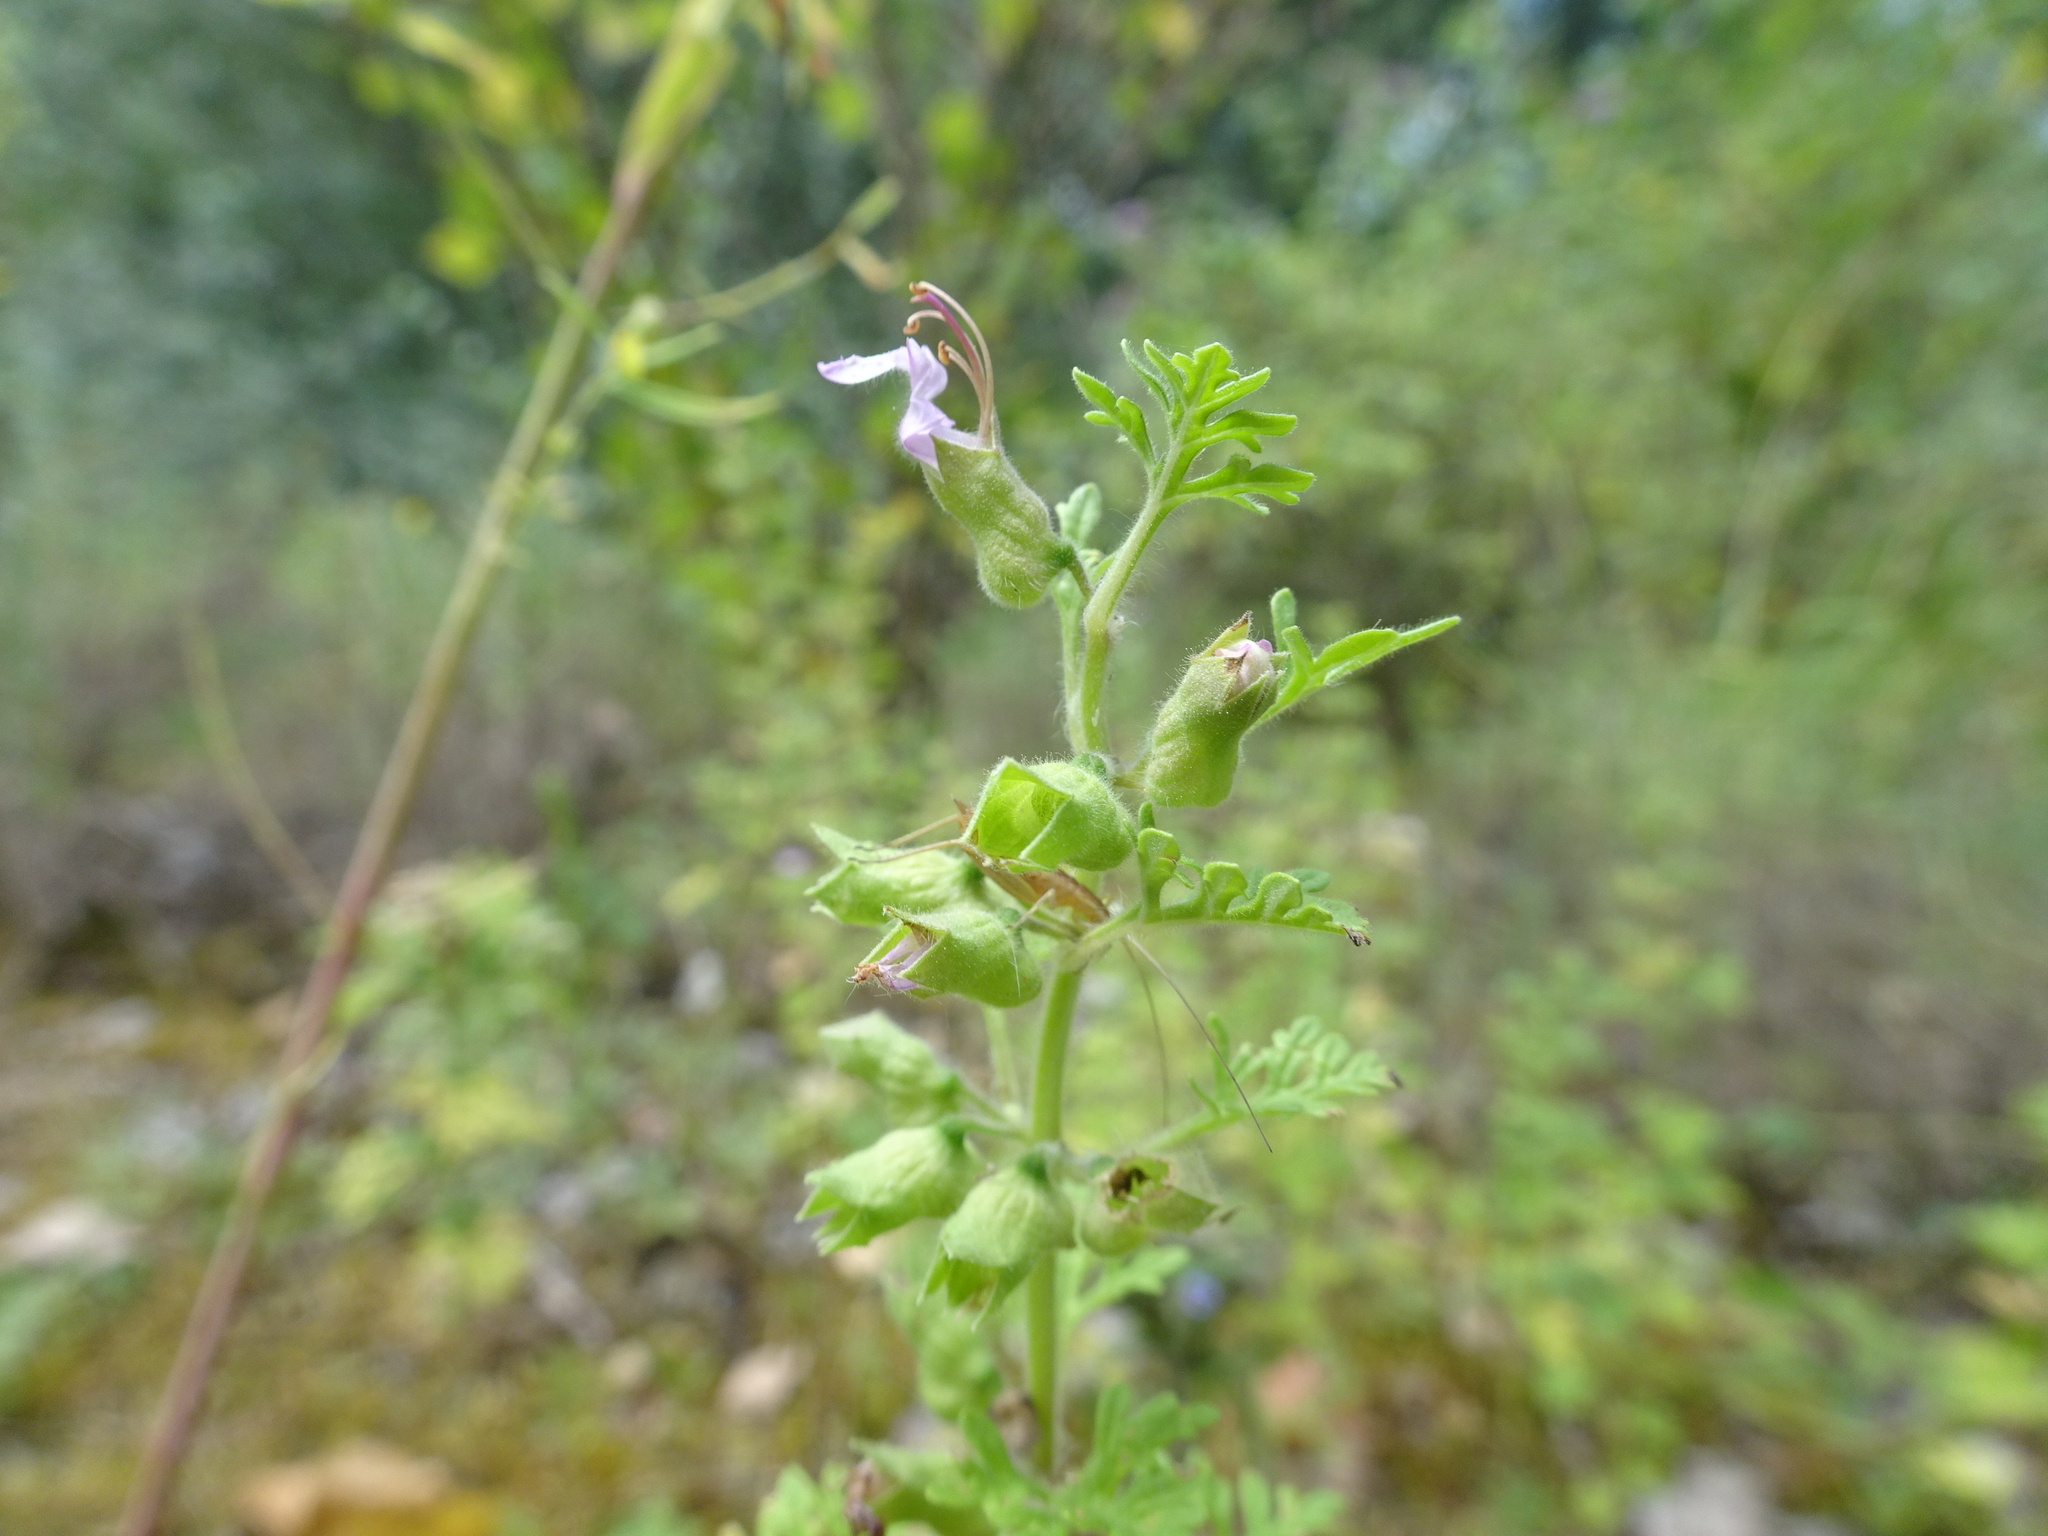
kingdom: Plantae
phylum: Tracheophyta
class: Magnoliopsida
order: Lamiales
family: Lamiaceae
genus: Teucrium
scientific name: Teucrium botrys
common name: Cut-leaved germander
